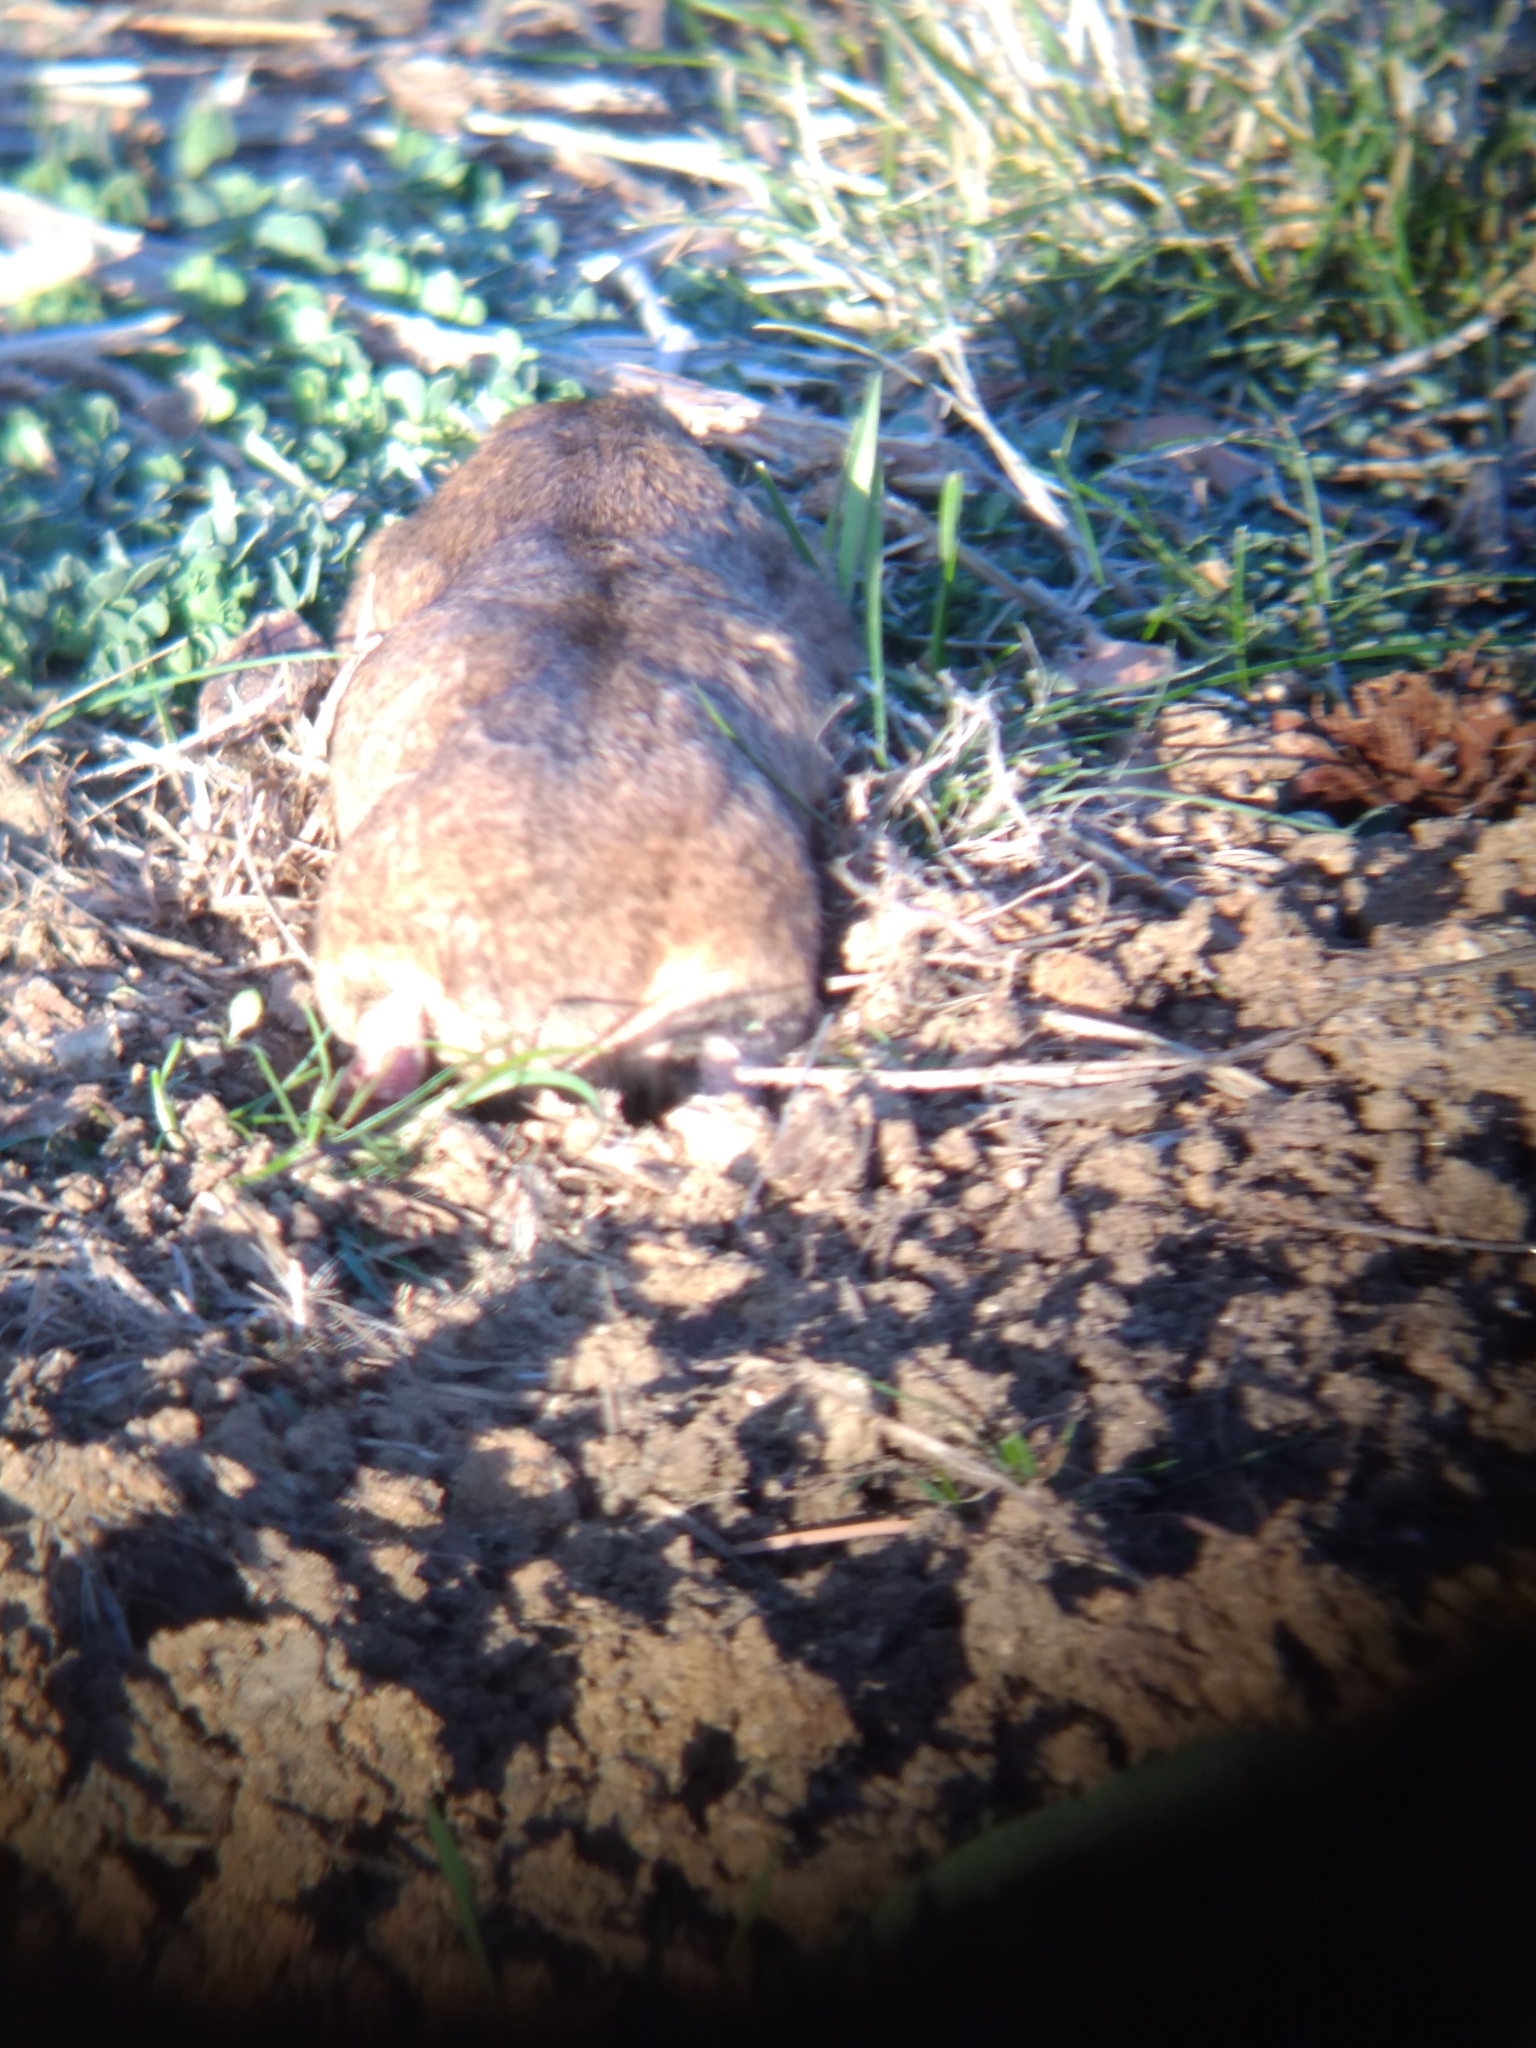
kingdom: Animalia
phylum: Chordata
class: Mammalia
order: Rodentia
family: Geomyidae
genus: Thomomys
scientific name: Thomomys bottae
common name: Botta's pocket gopher
